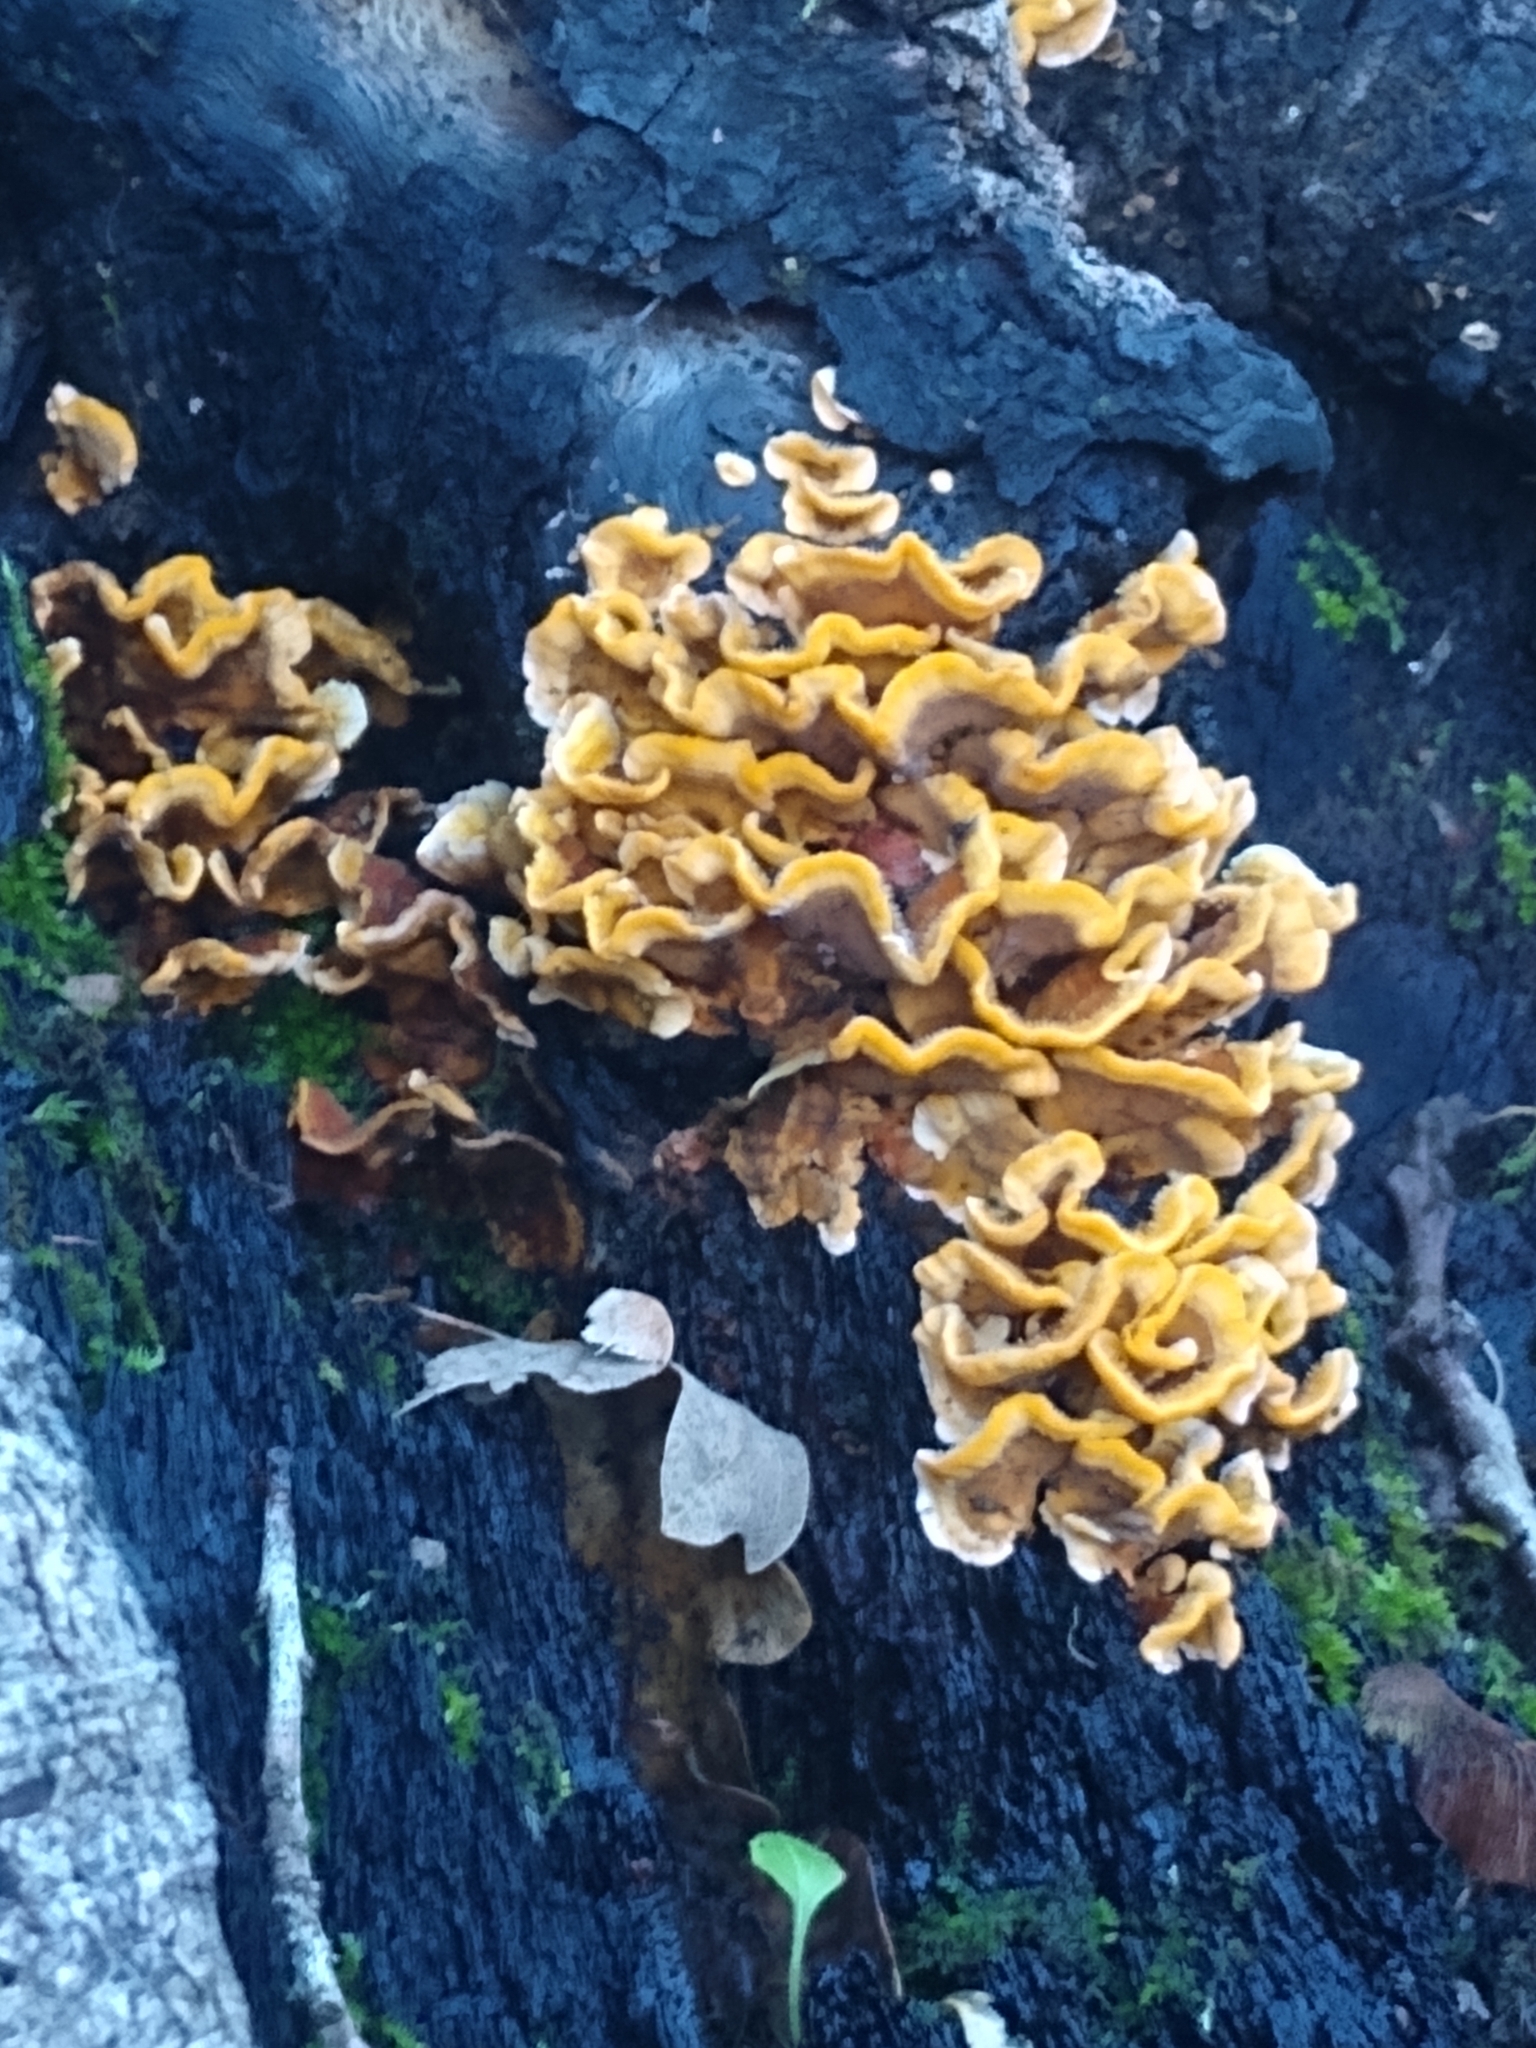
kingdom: Fungi
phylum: Basidiomycota
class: Agaricomycetes
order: Russulales
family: Stereaceae
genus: Stereum
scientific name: Stereum hirsutum
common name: Hairy curtain crust
